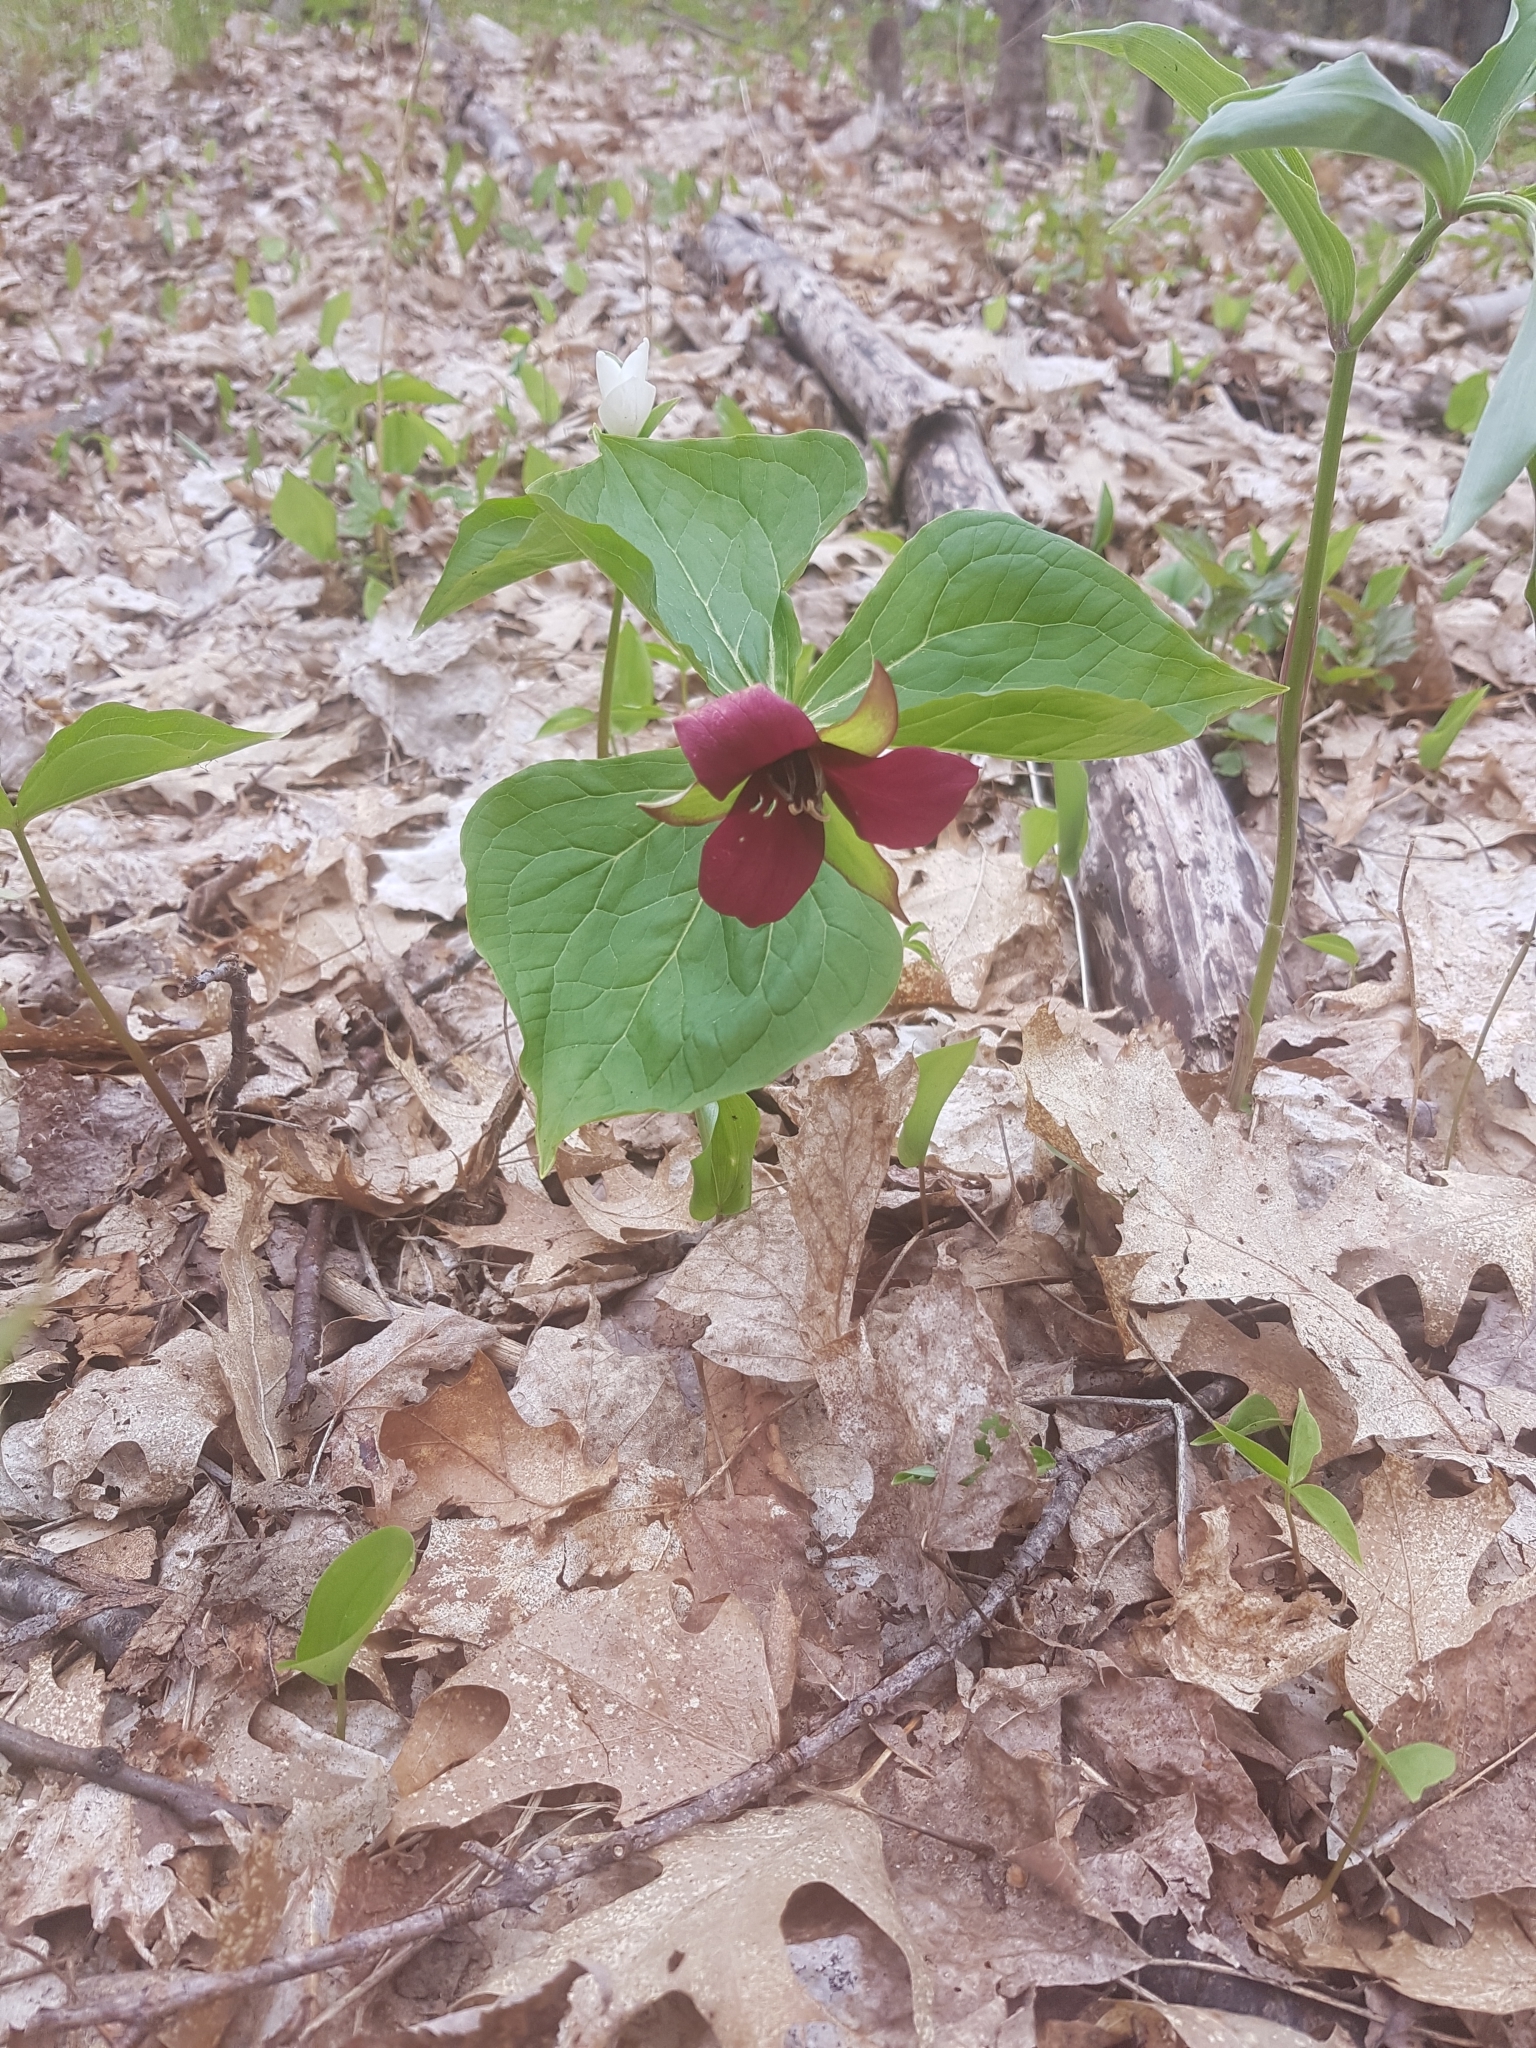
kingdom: Plantae
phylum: Tracheophyta
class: Liliopsida
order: Liliales
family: Melanthiaceae
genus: Trillium
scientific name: Trillium erectum
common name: Purple trillium
